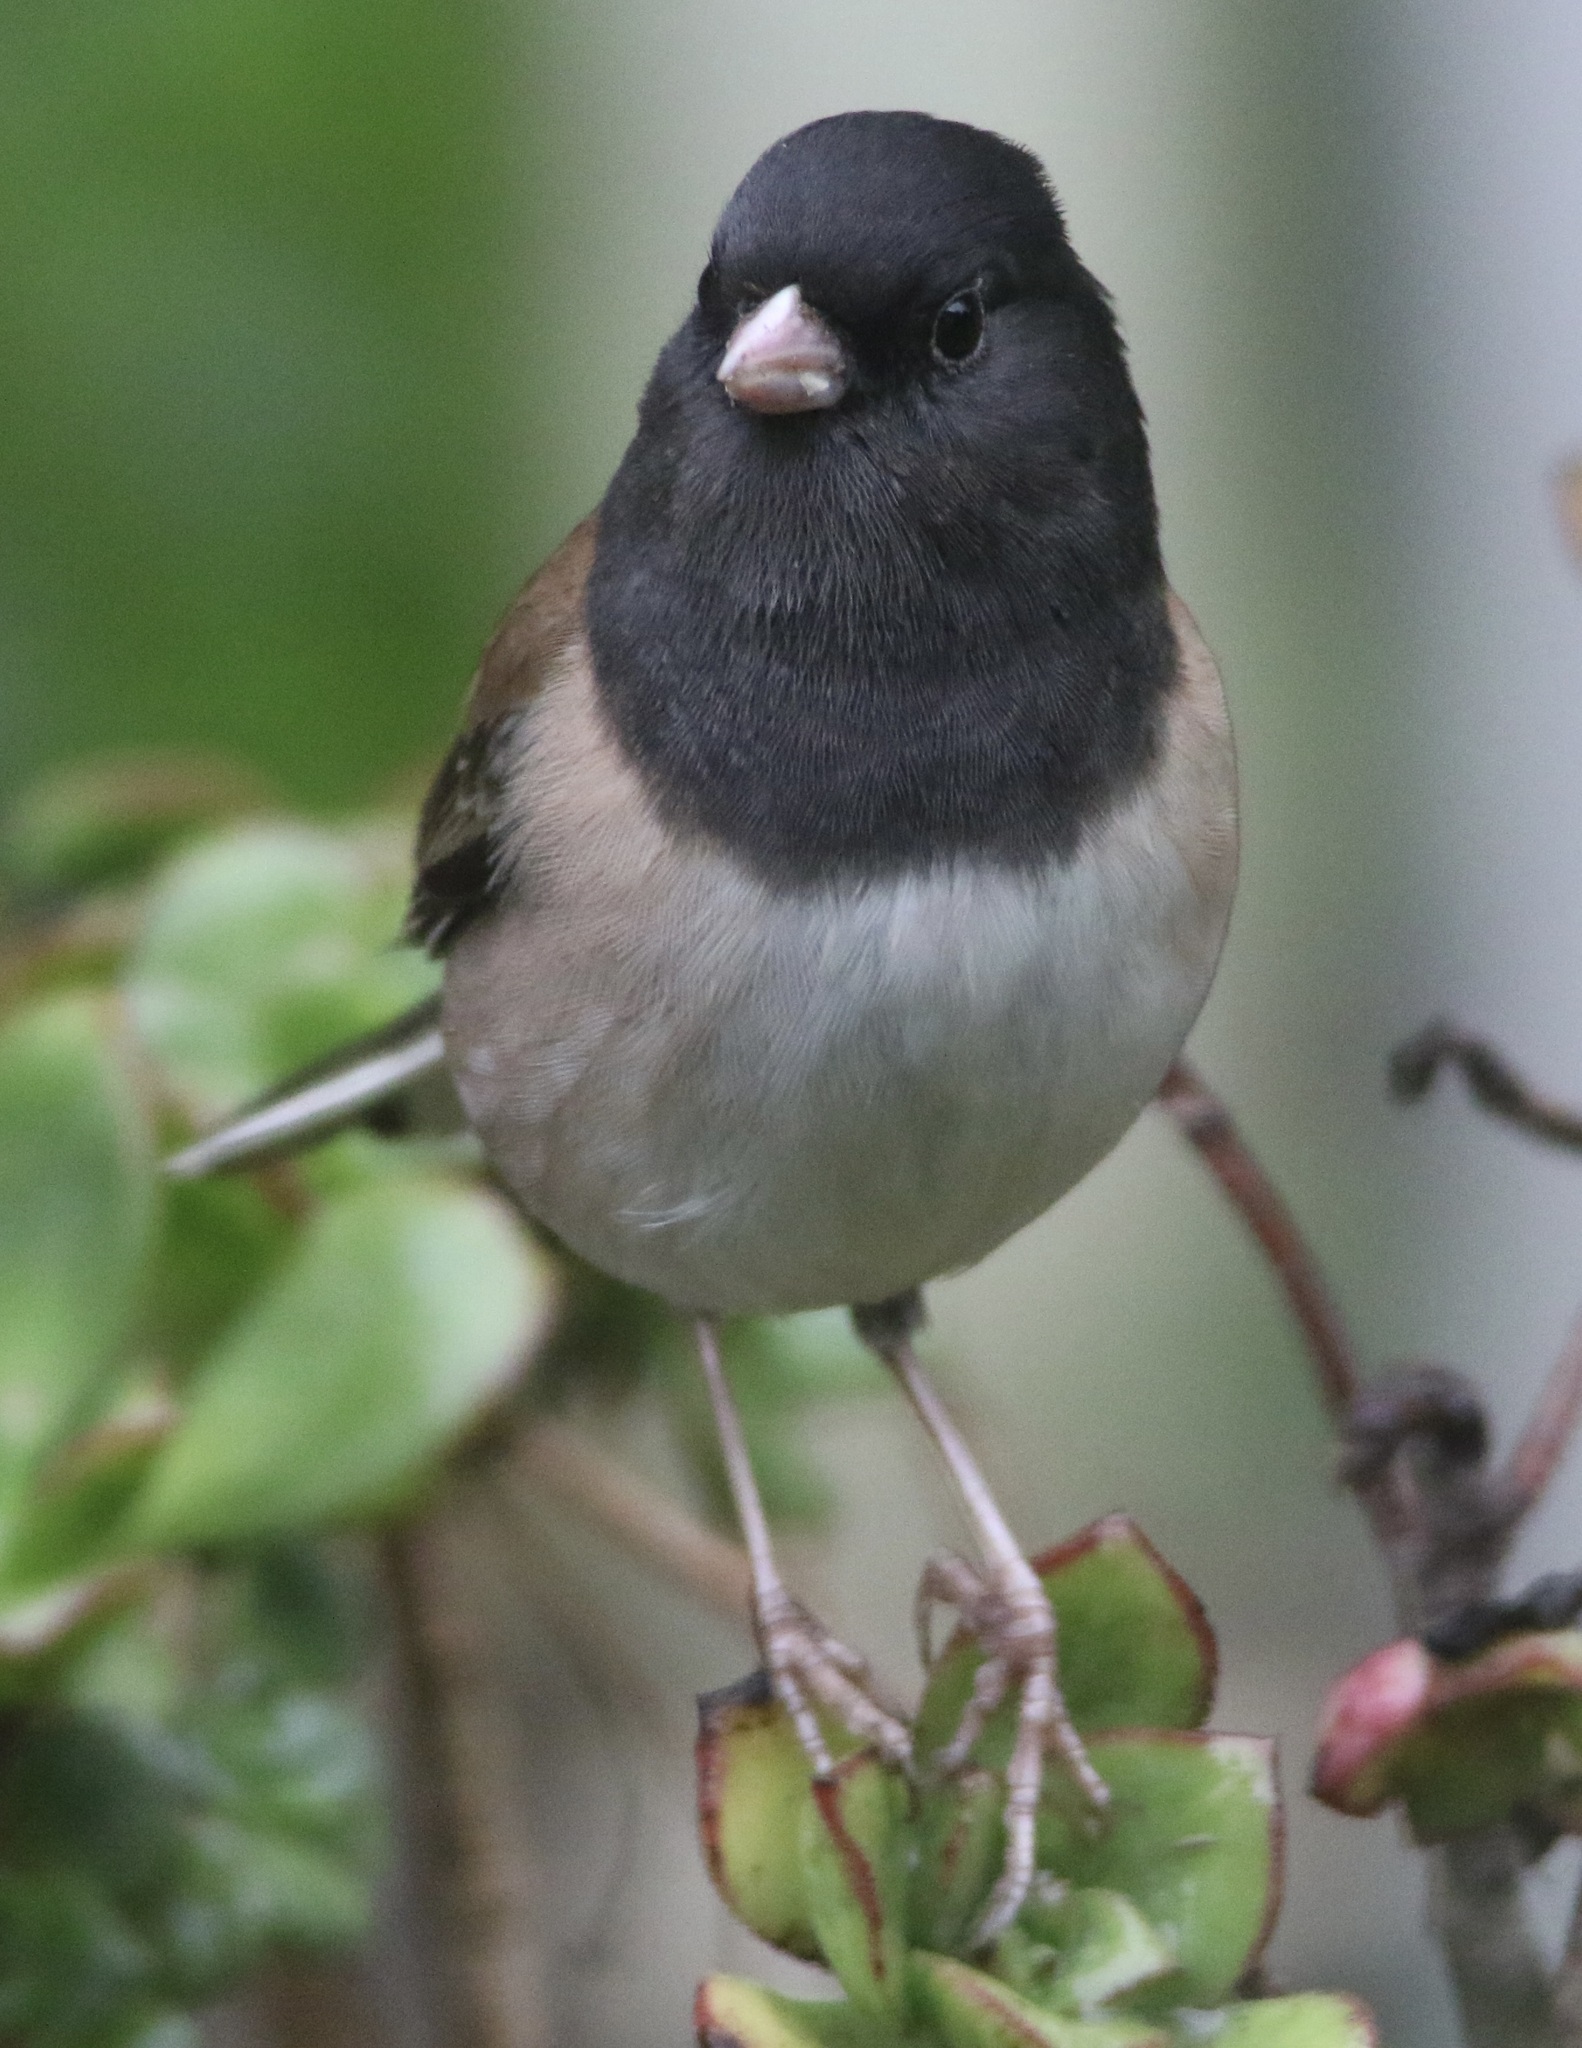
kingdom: Animalia
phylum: Chordata
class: Aves
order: Passeriformes
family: Passerellidae
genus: Junco
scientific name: Junco hyemalis
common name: Dark-eyed junco
